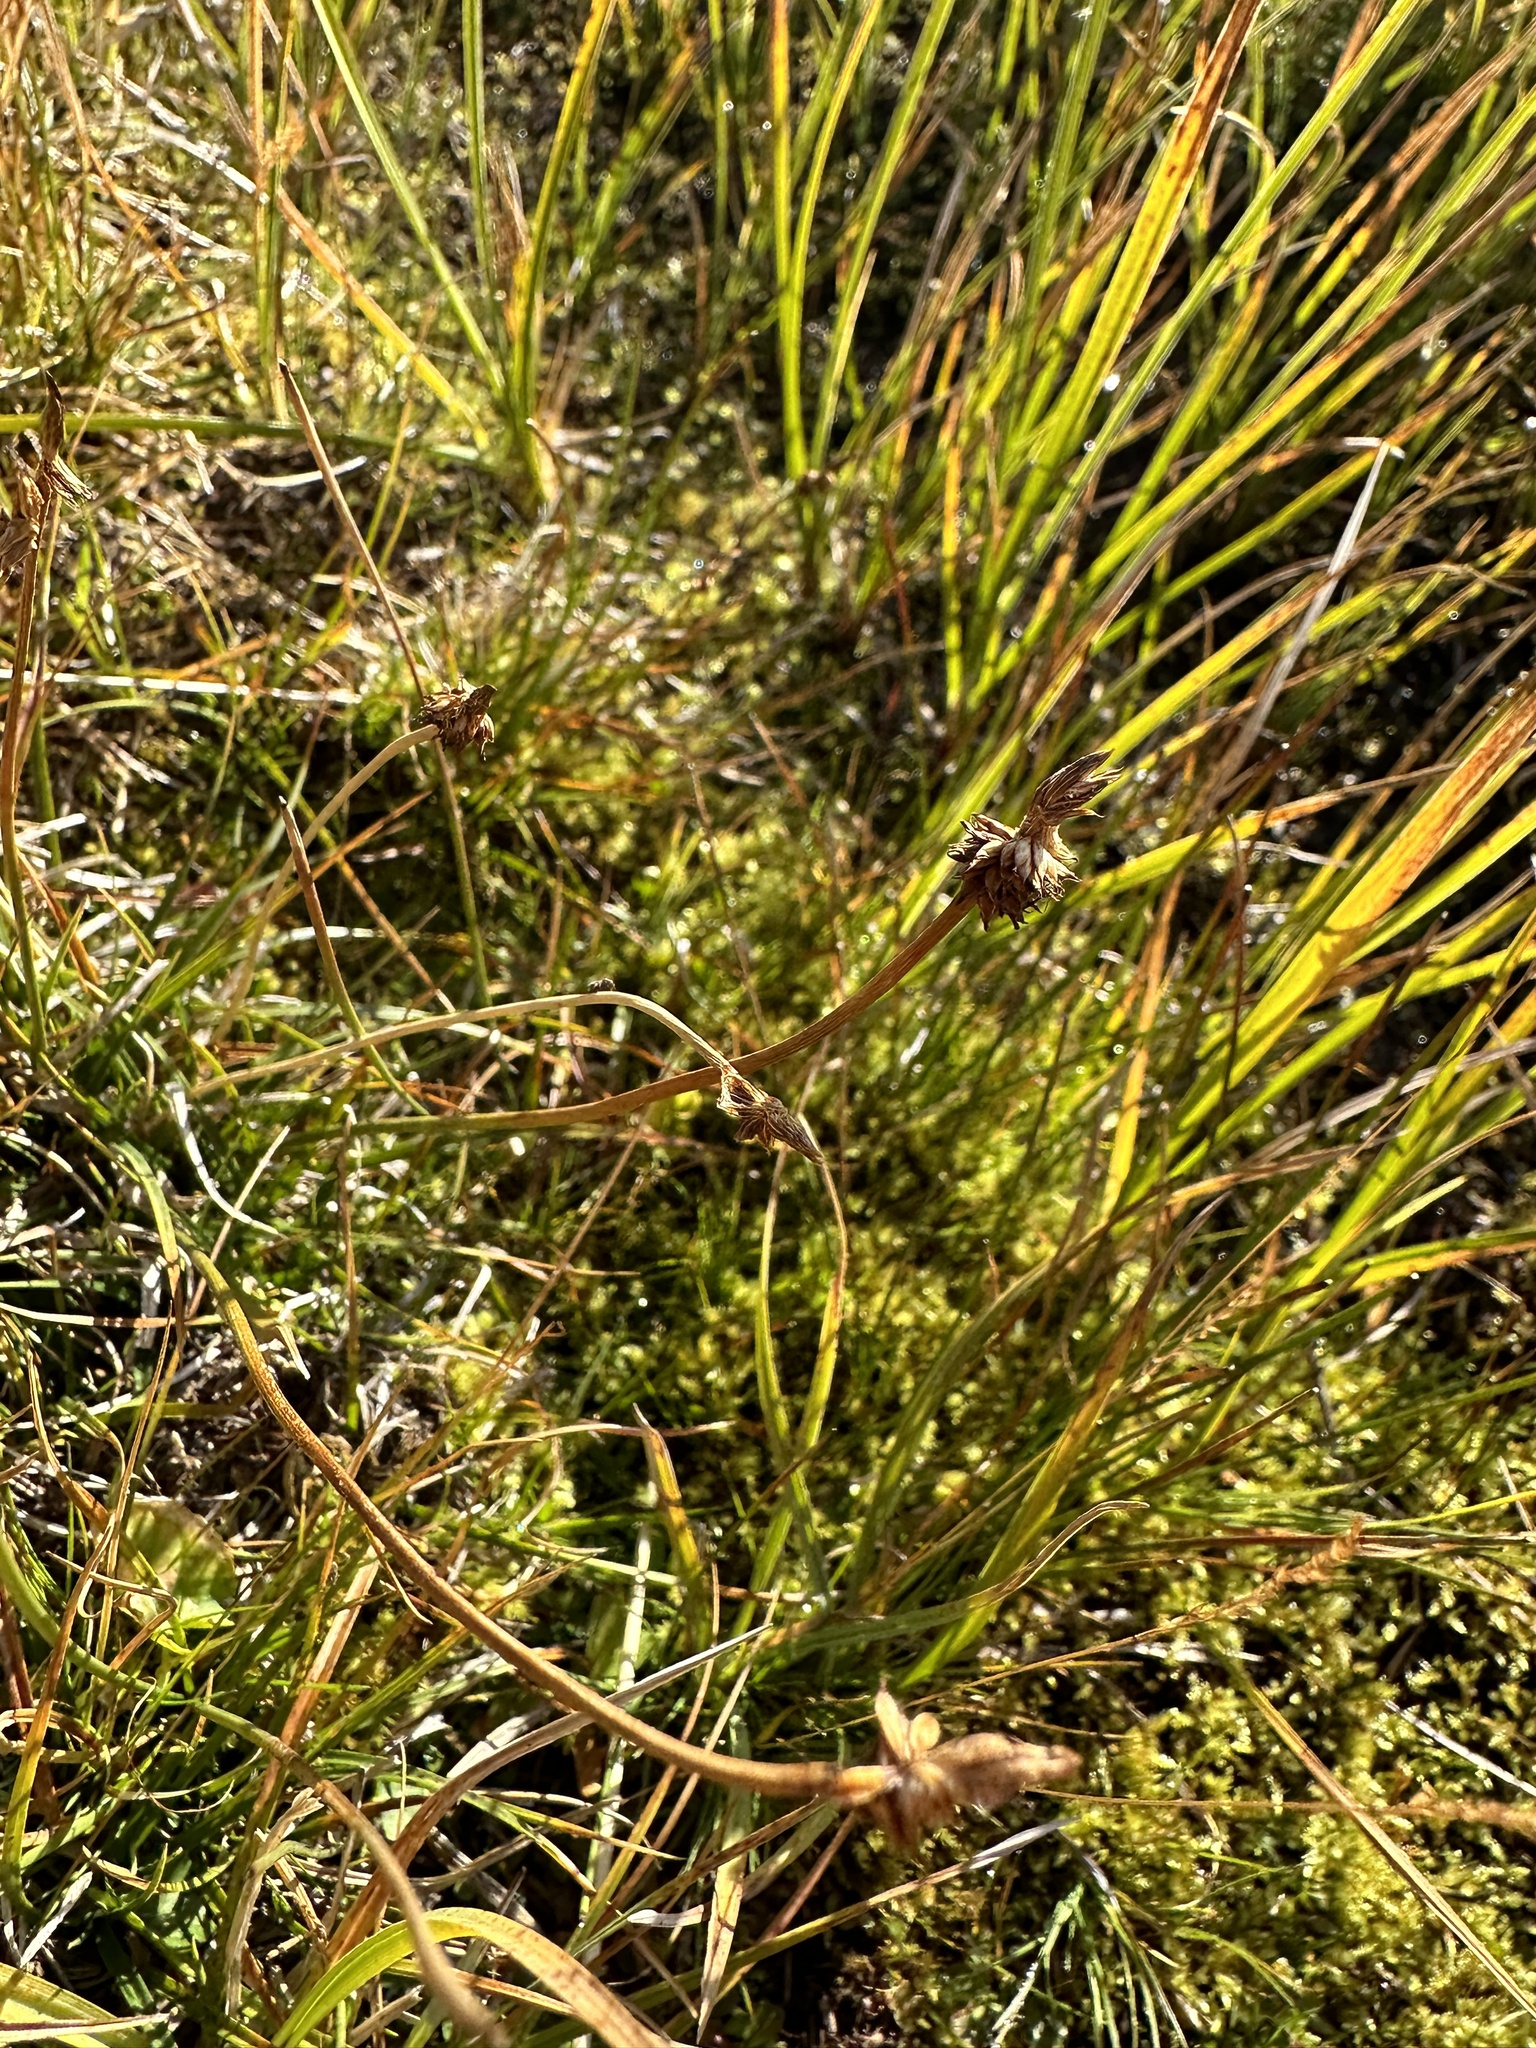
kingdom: Plantae
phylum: Tracheophyta
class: Liliopsida
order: Poales
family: Cyperaceae
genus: Carex
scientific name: Carex nigricans
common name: Black alpine sedge
